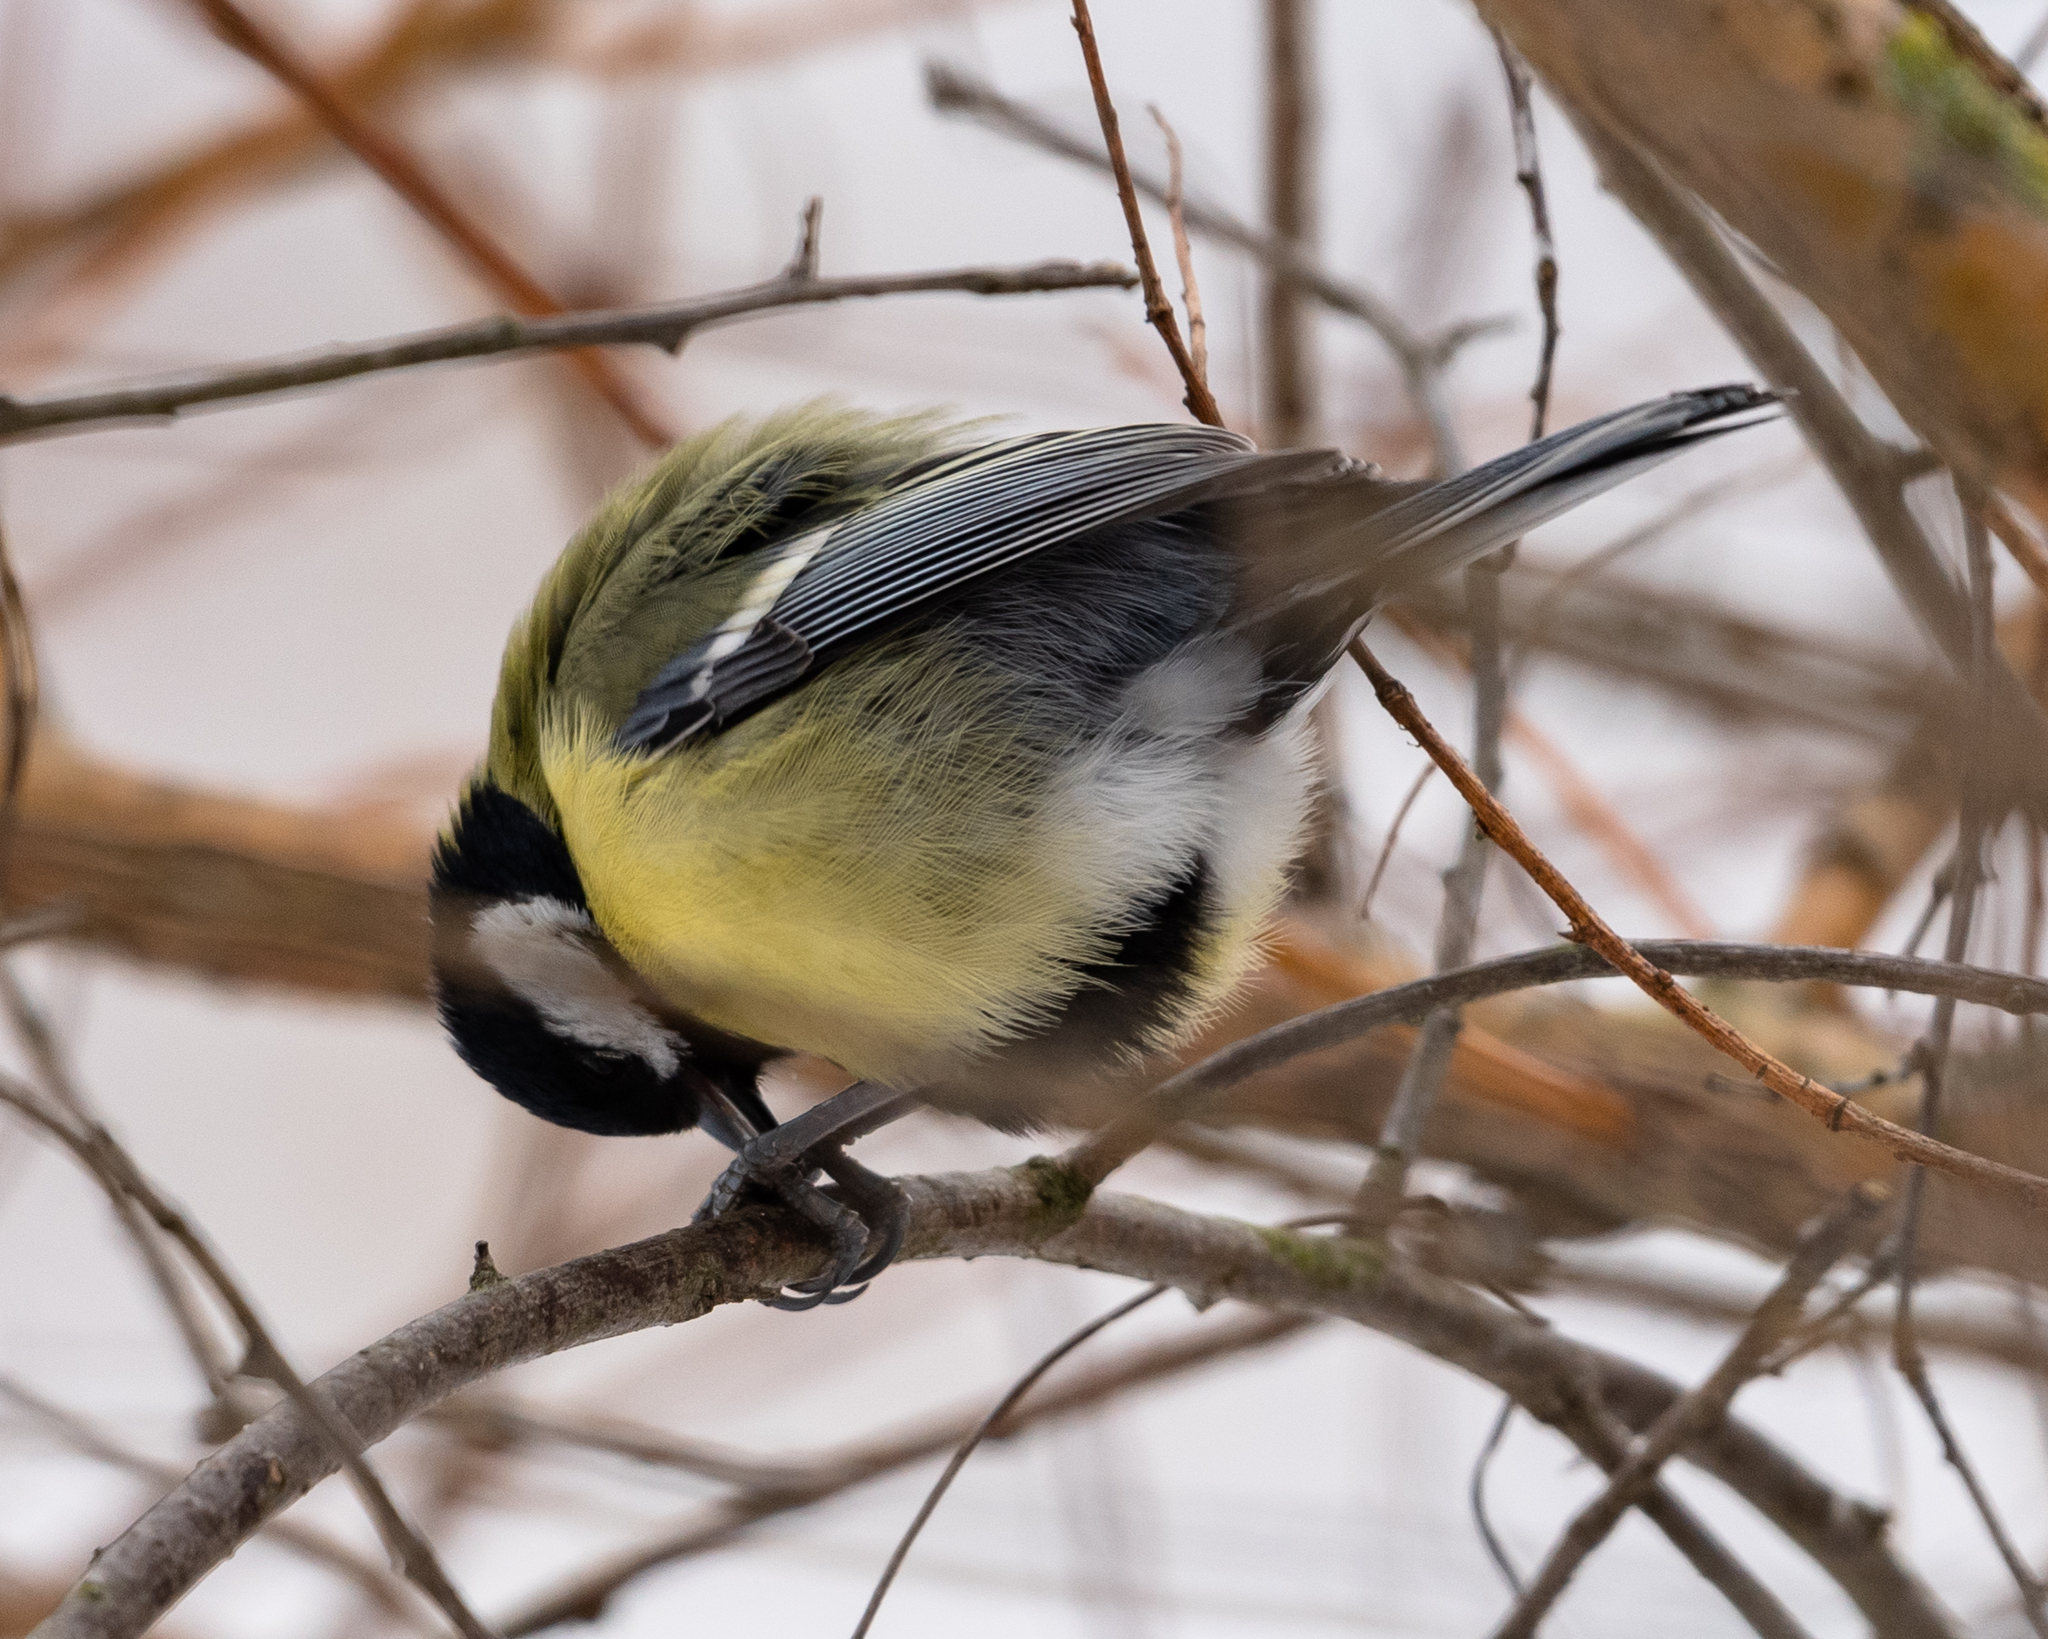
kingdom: Animalia
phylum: Chordata
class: Aves
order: Passeriformes
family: Paridae
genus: Parus
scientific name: Parus major
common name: Great tit
